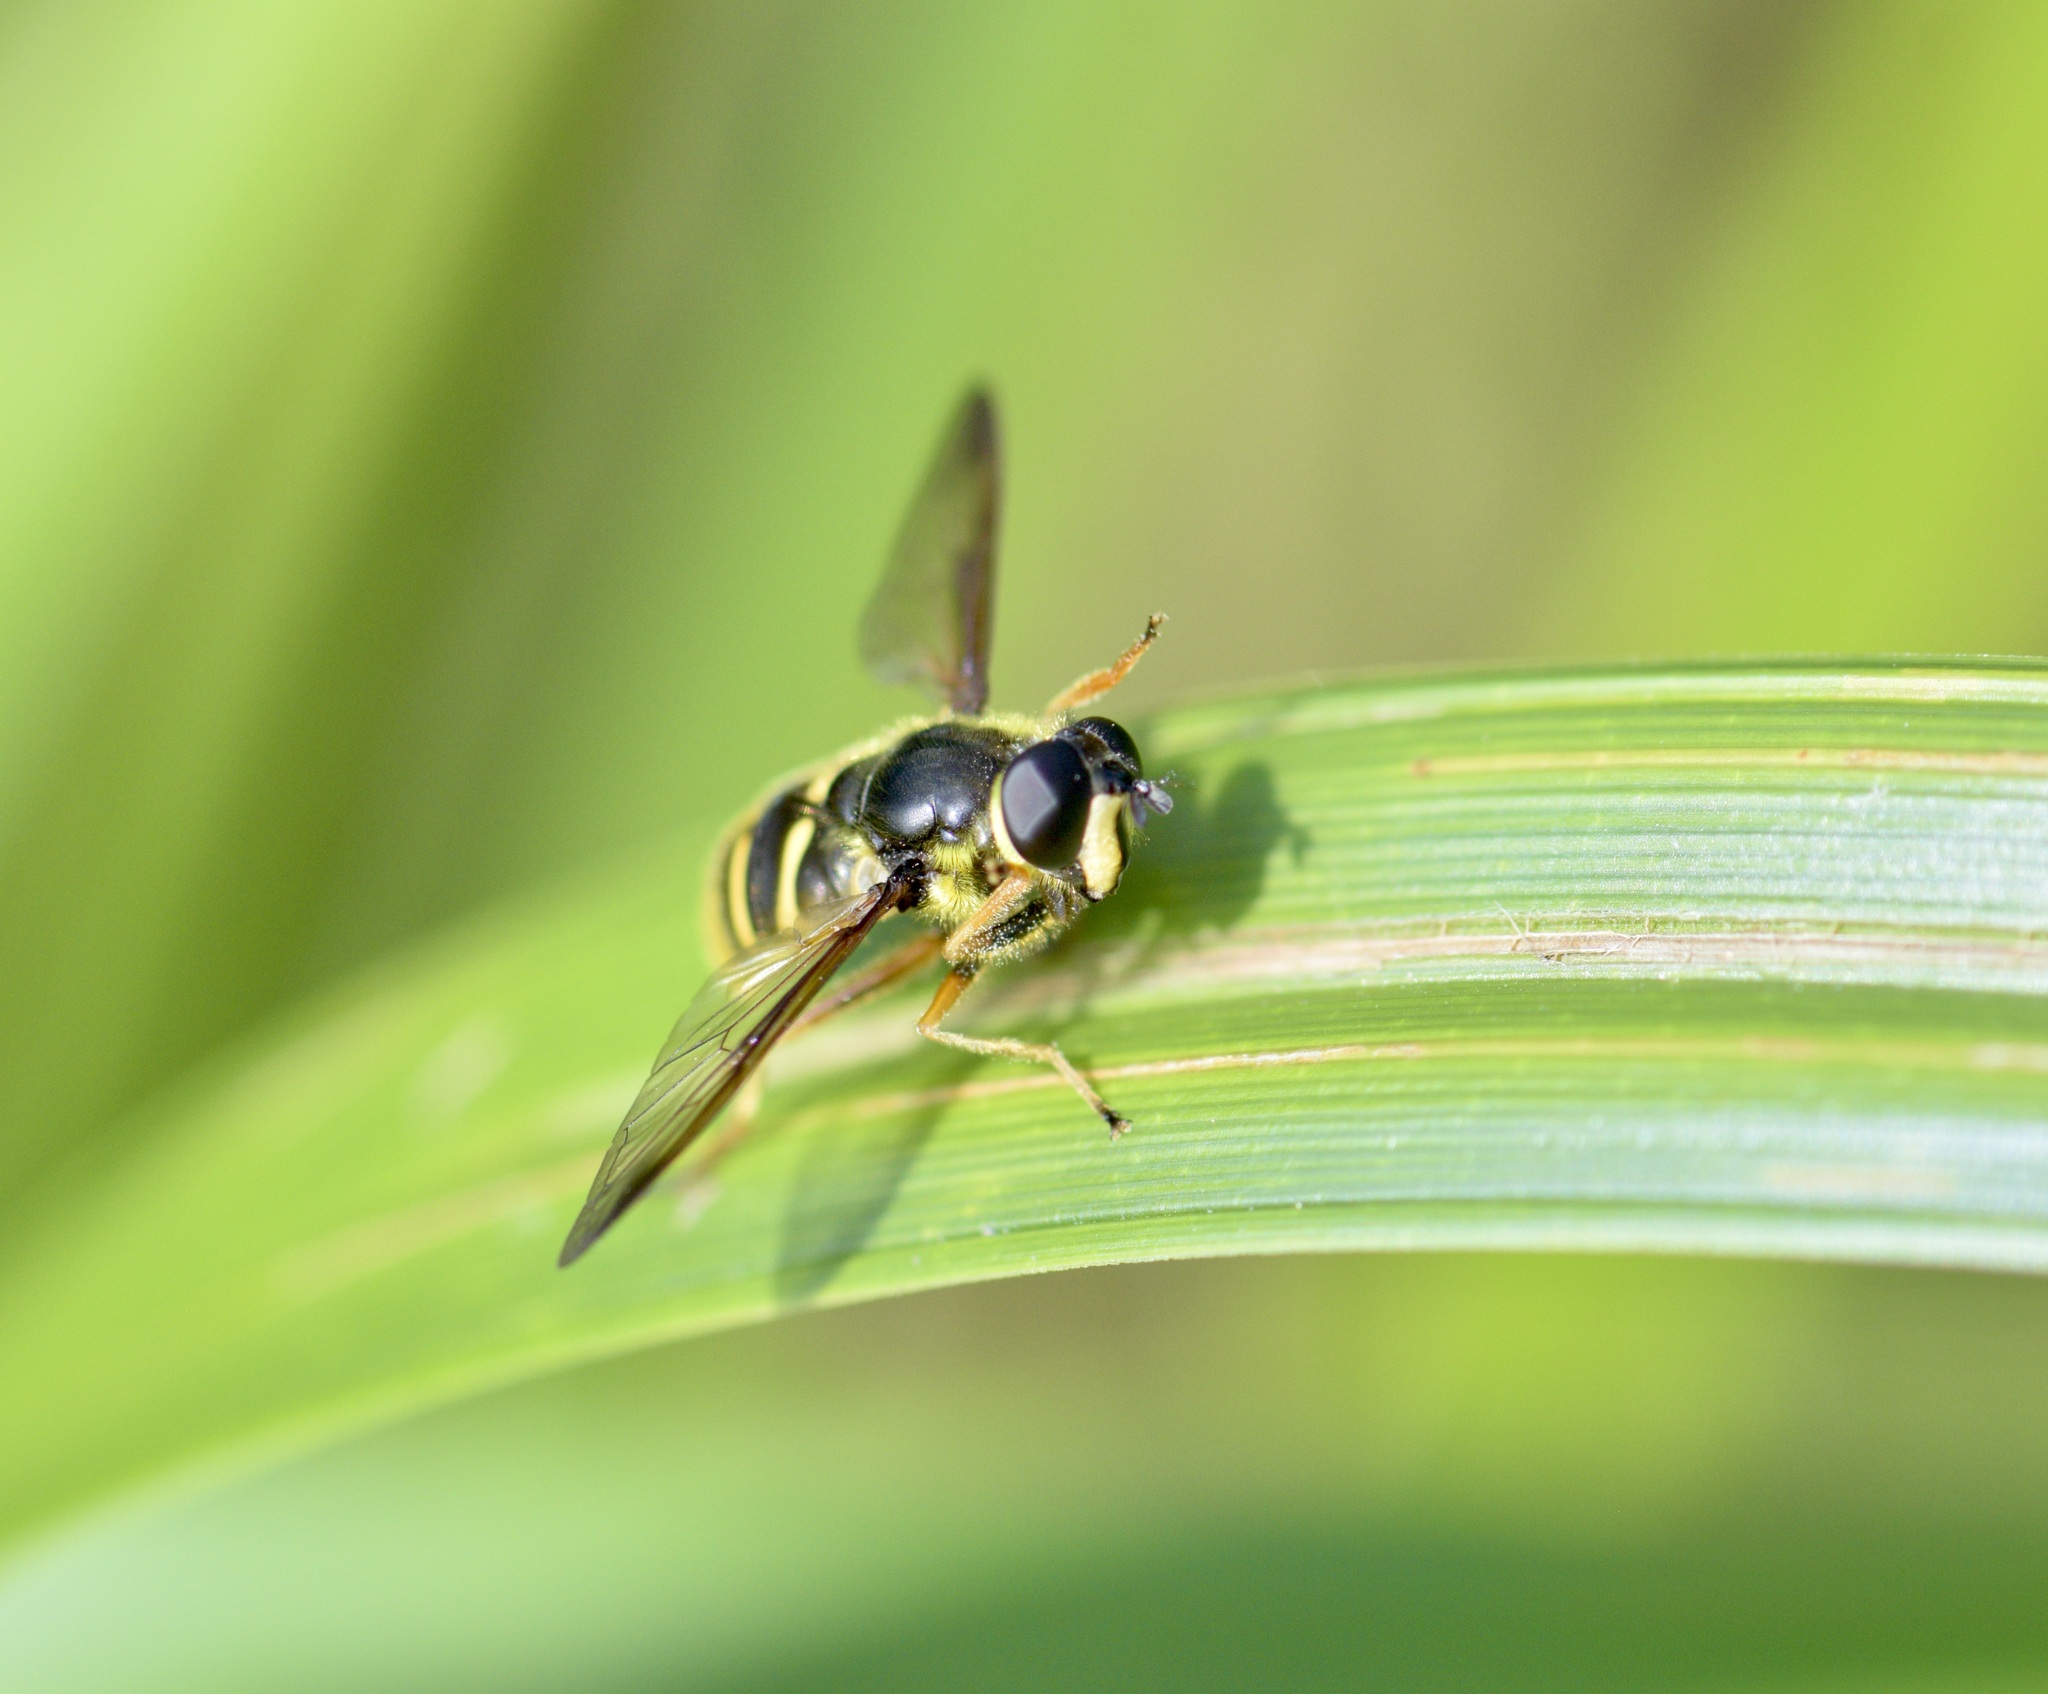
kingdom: Animalia
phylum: Arthropoda
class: Insecta
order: Diptera
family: Syrphidae
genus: Sericomyia
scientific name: Sericomyia chrysotoxoides
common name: Oblique-banded pond fly
